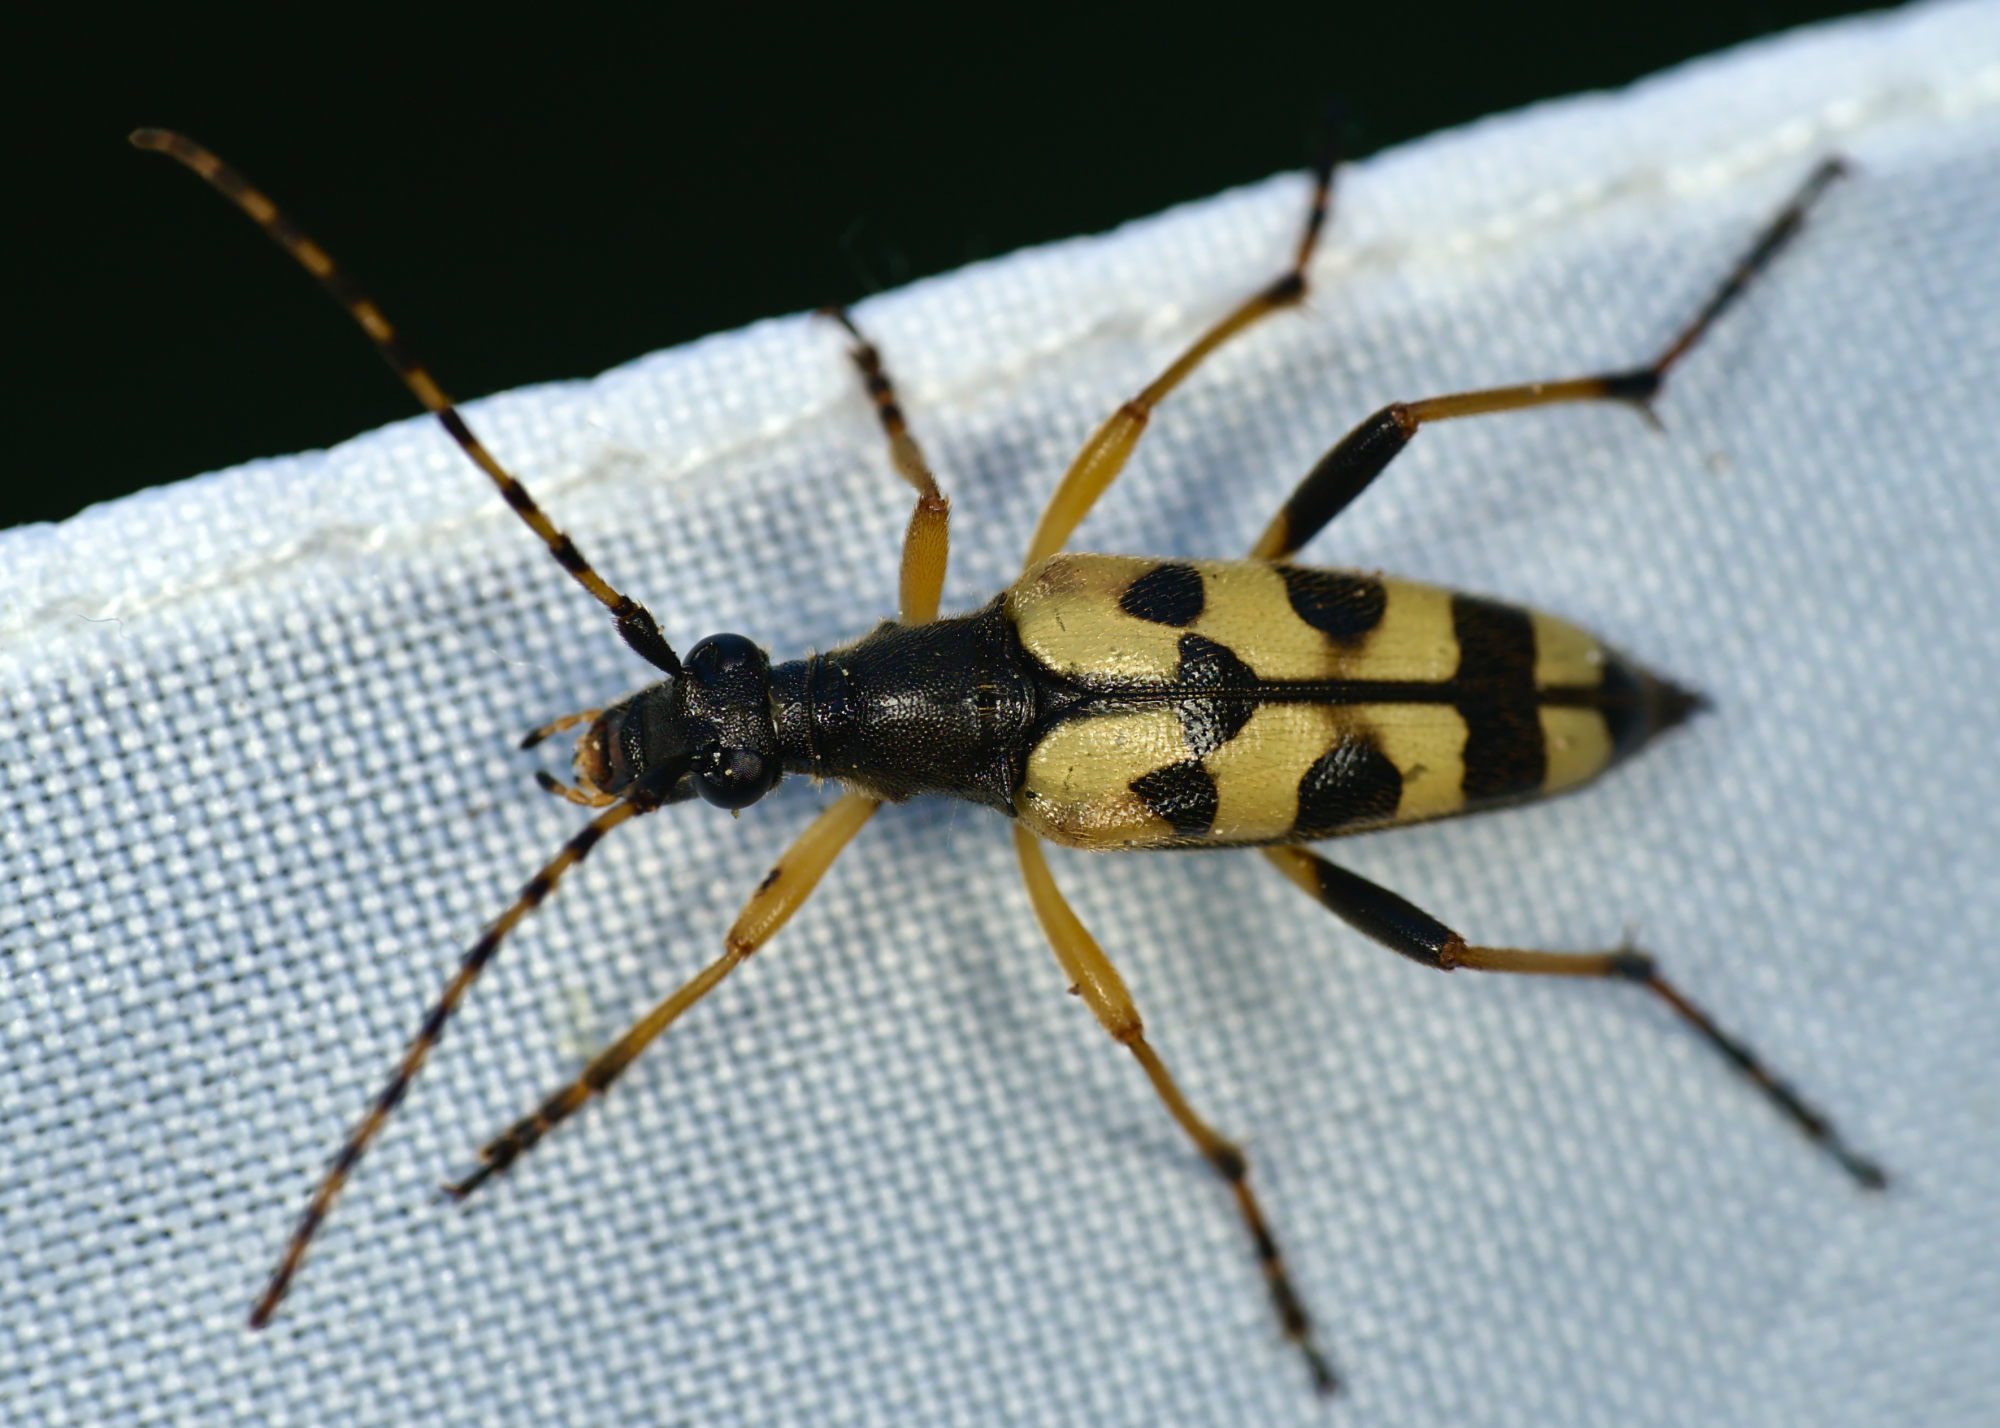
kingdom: Animalia
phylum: Arthropoda
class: Insecta
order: Coleoptera
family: Cerambycidae
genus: Rutpela
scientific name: Rutpela maculata
